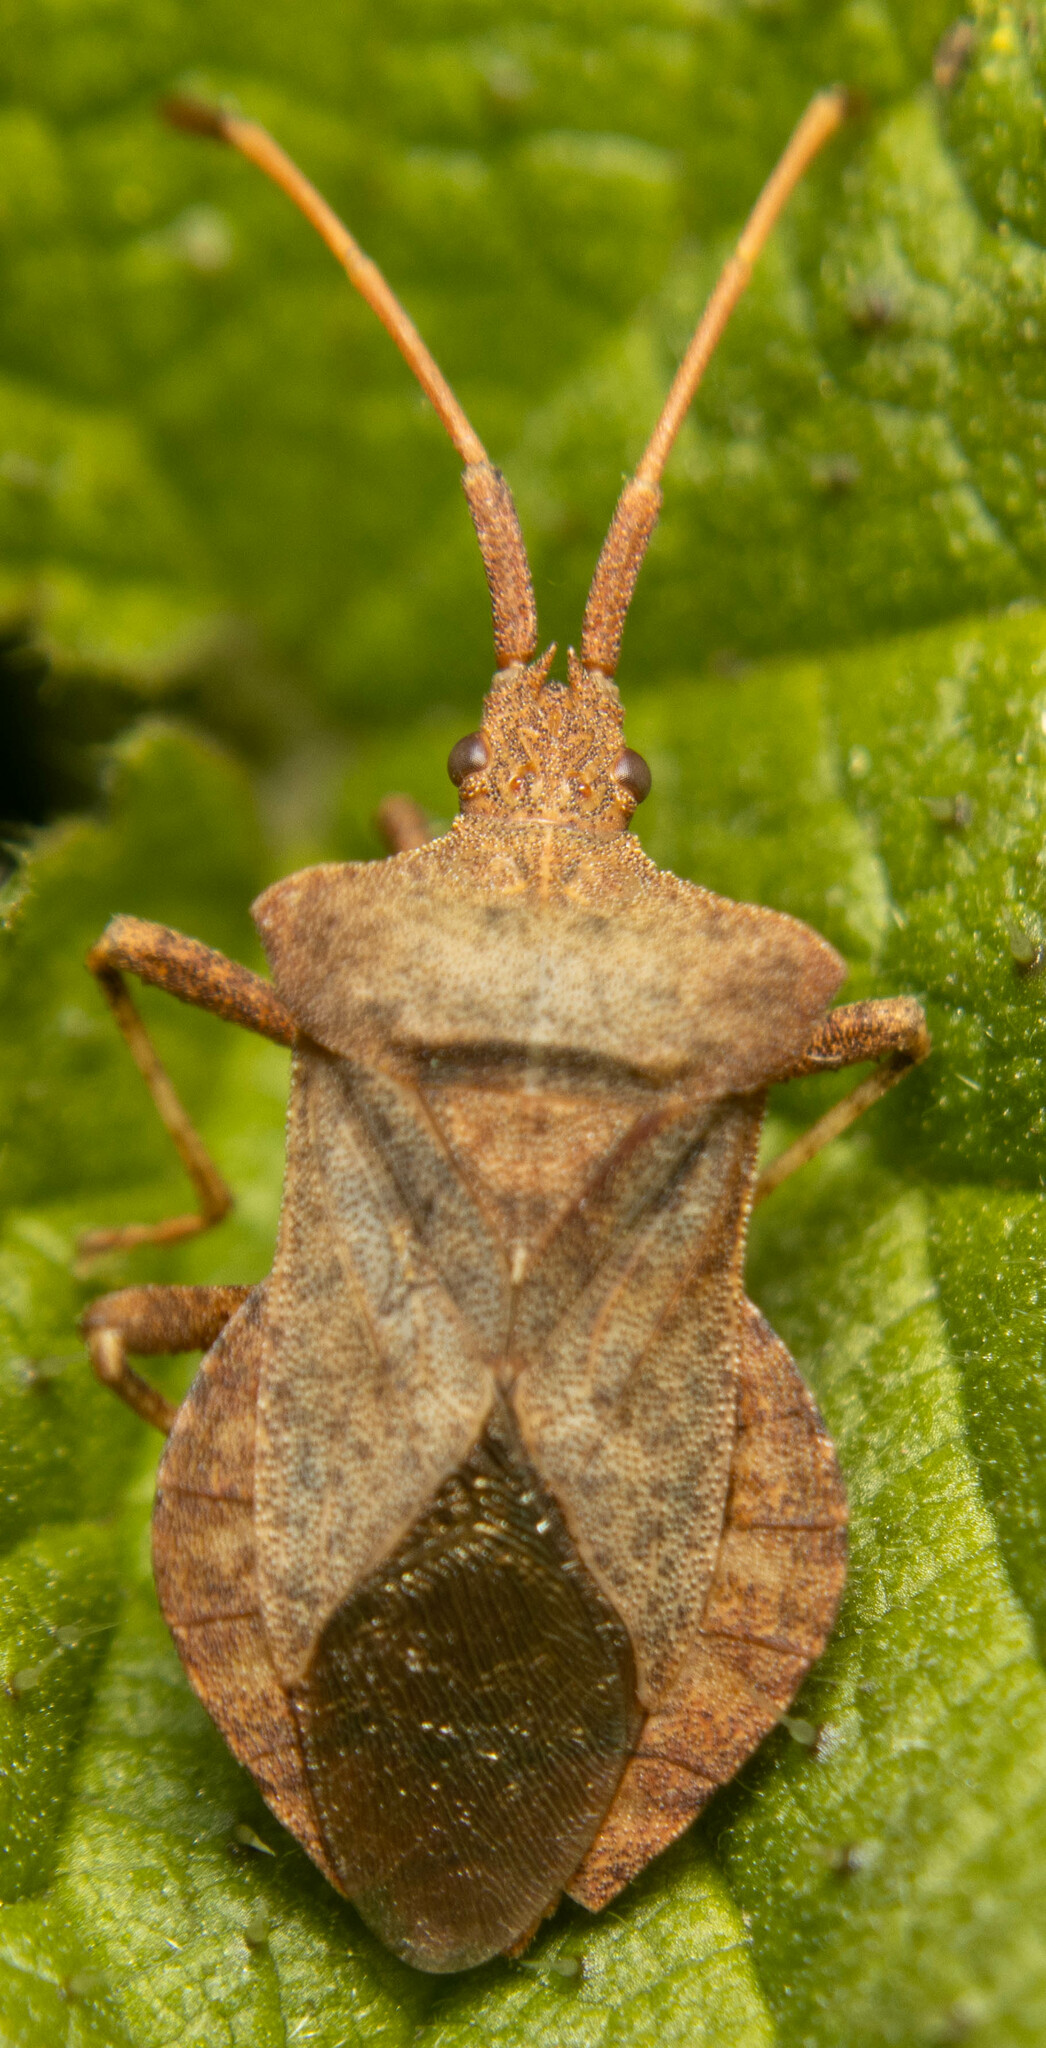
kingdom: Animalia
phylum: Arthropoda
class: Insecta
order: Hemiptera
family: Coreidae
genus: Coreus
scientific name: Coreus marginatus
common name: Dock bug
